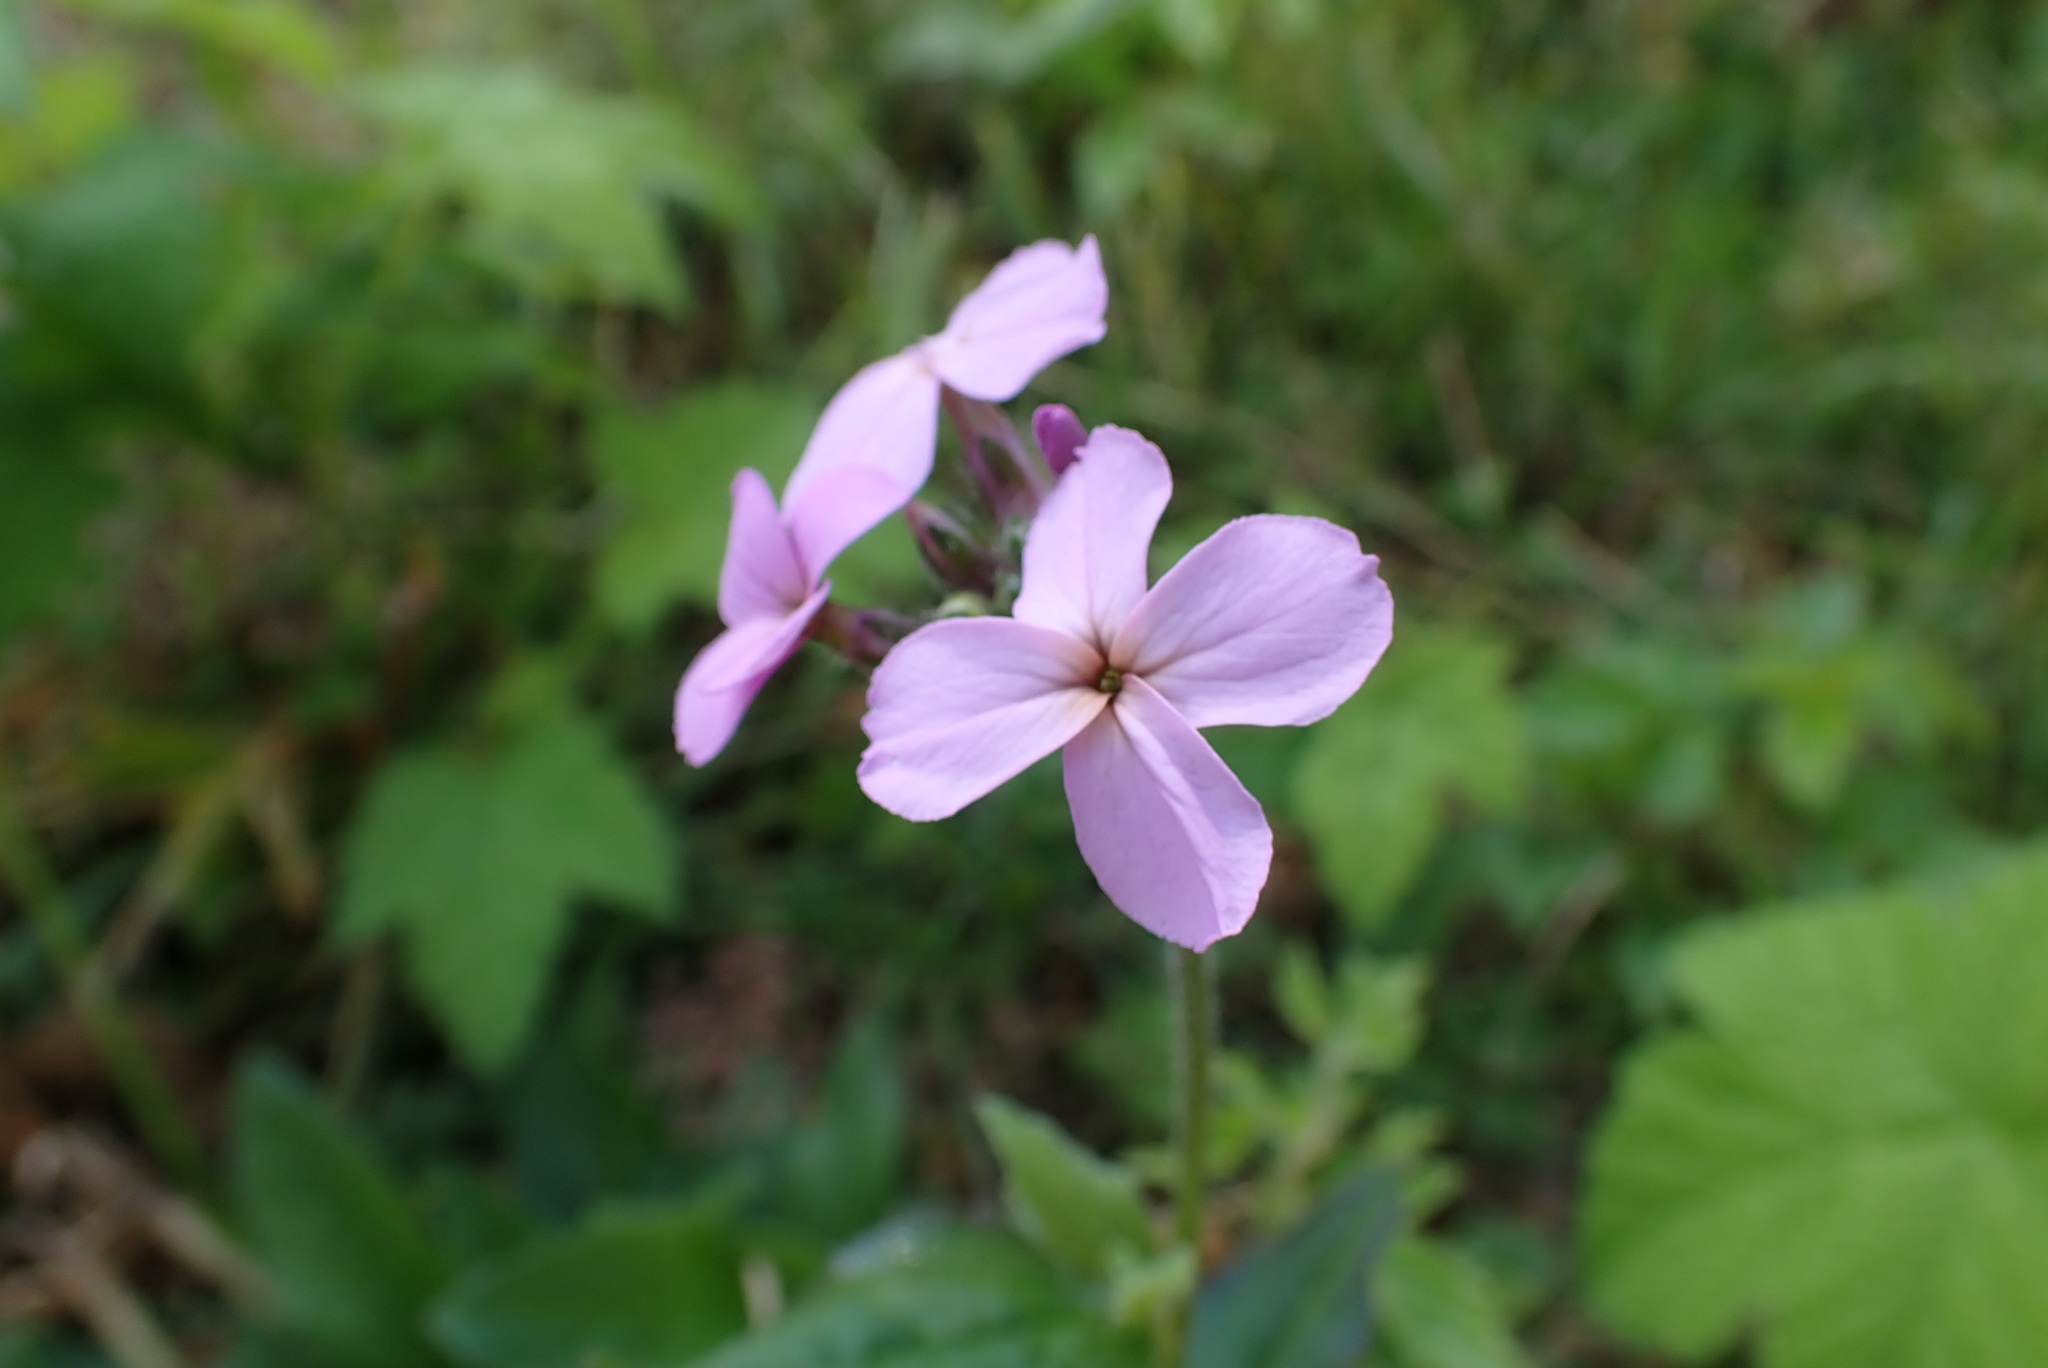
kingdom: Plantae
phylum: Tracheophyta
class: Magnoliopsida
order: Brassicales
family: Brassicaceae
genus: Hesperis
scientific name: Hesperis matronalis
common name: Dame's-violet
